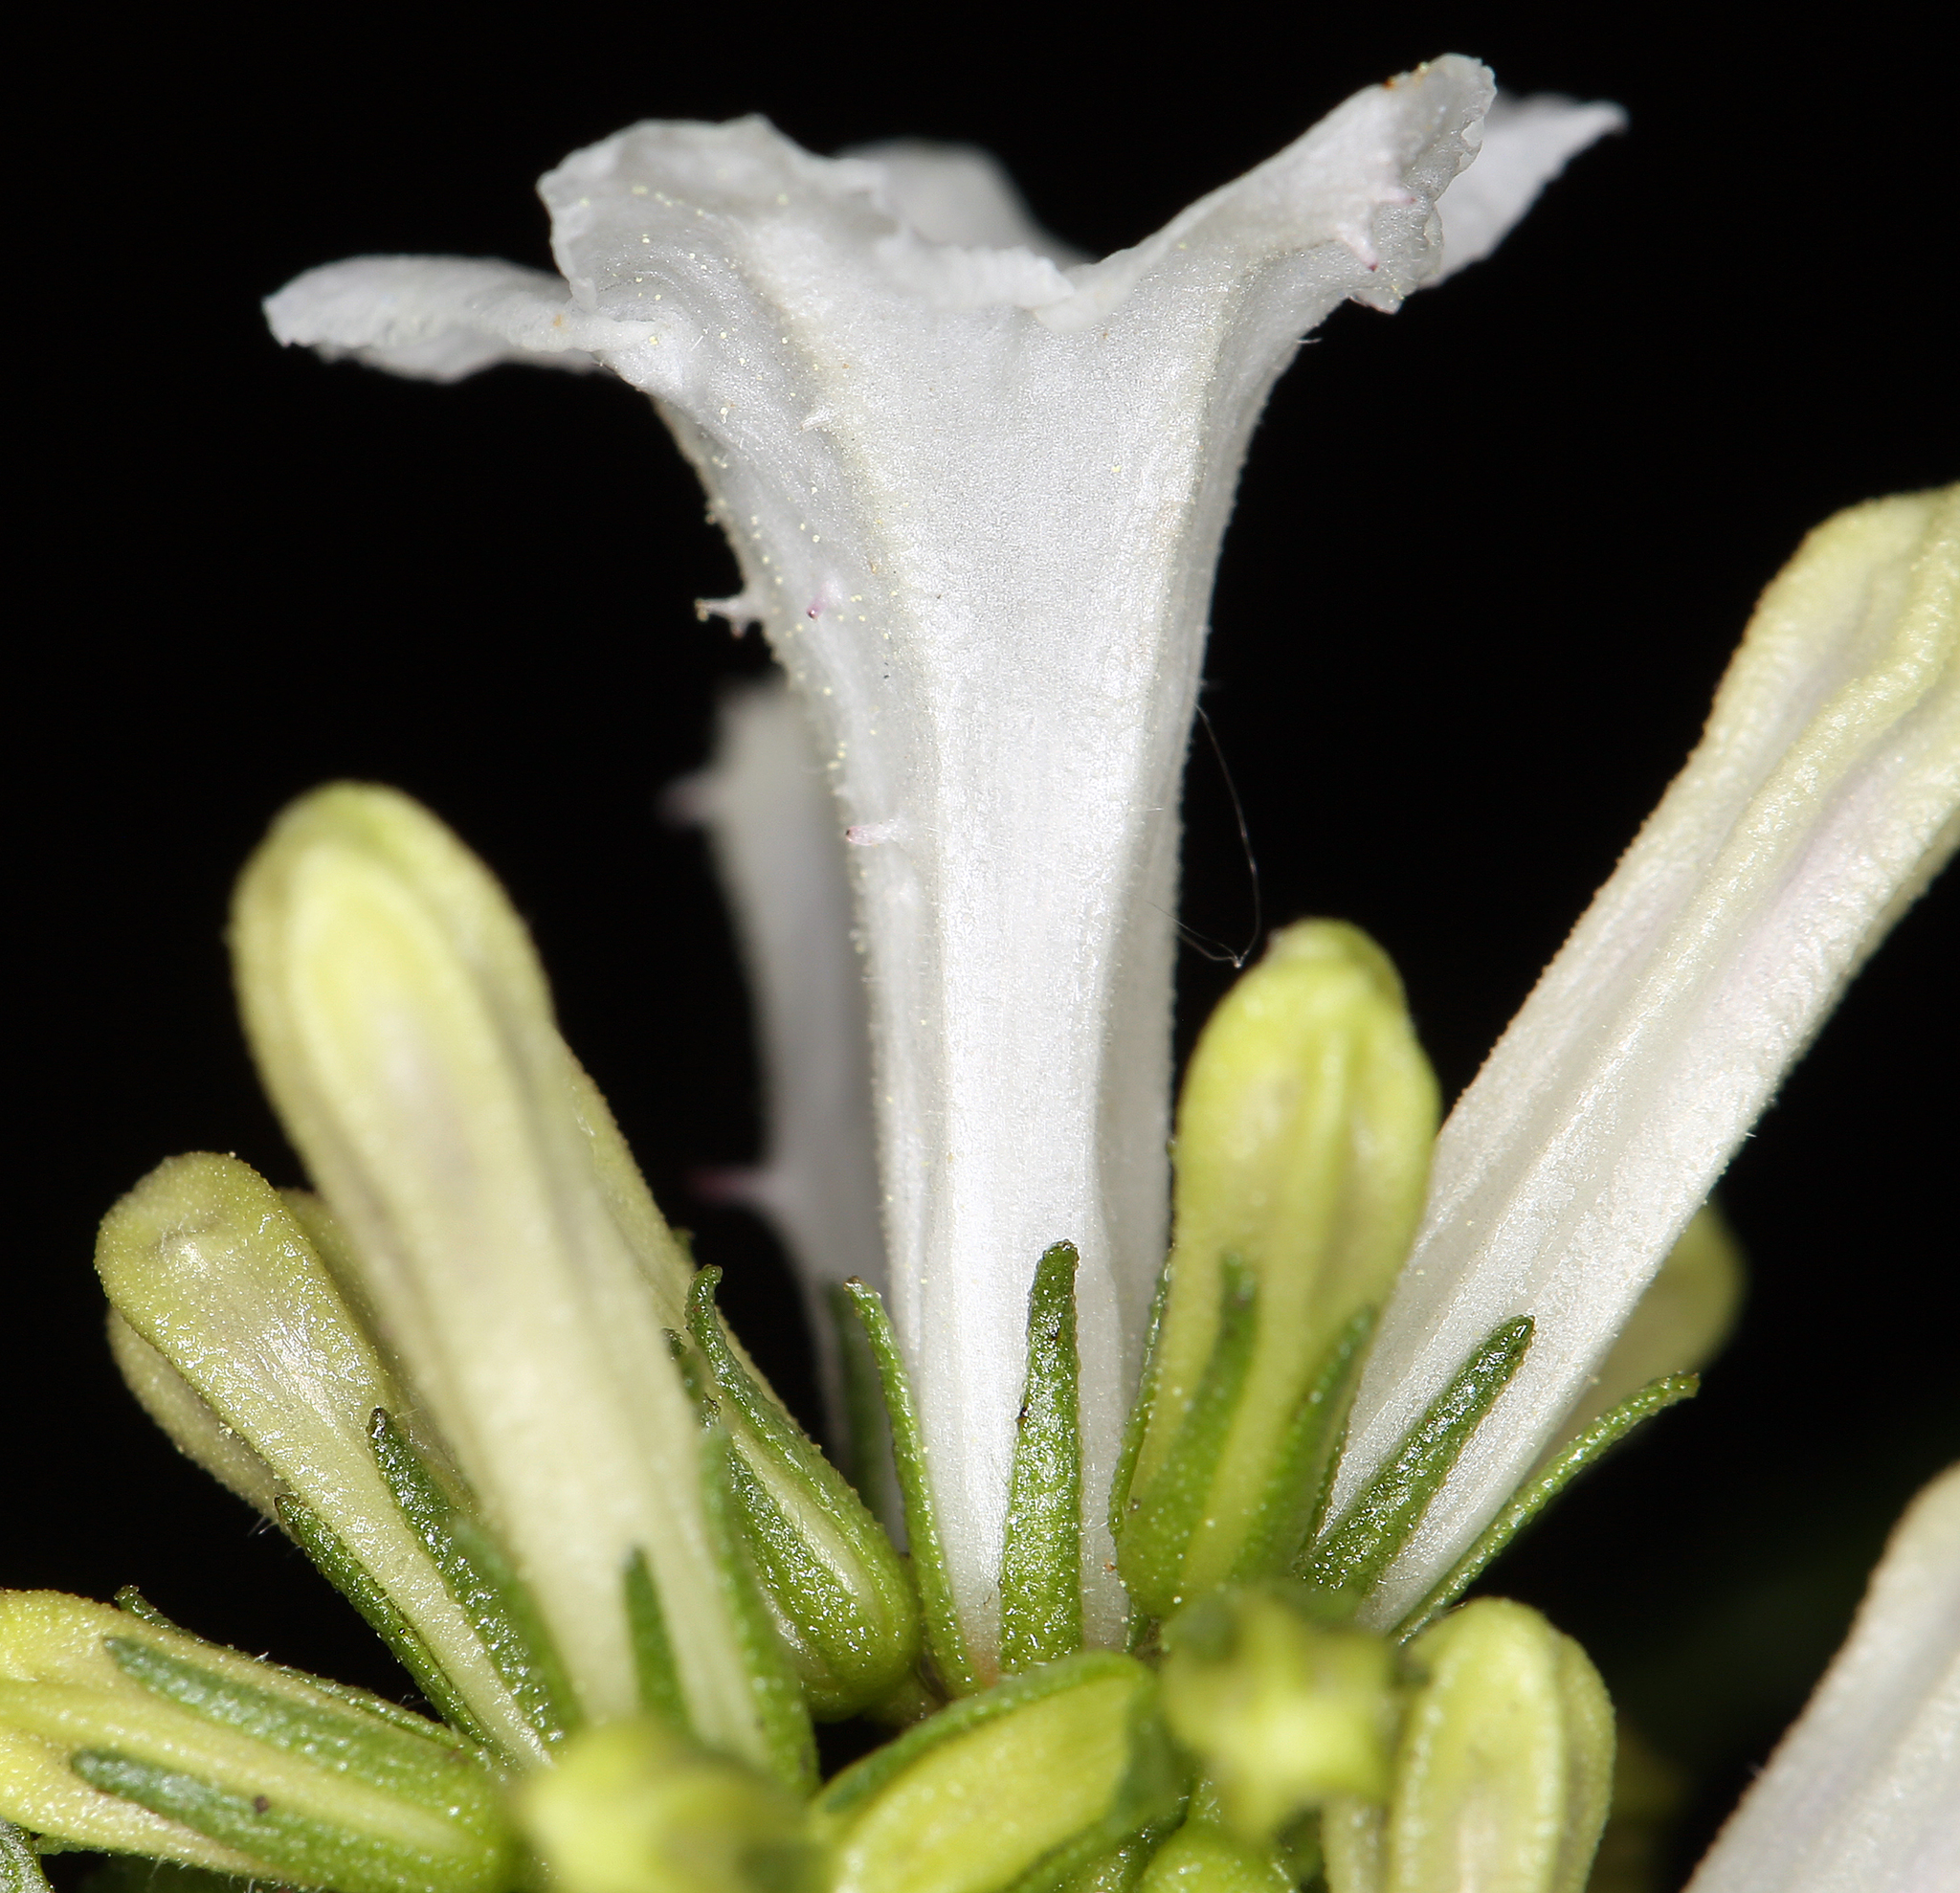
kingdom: Plantae
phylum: Tracheophyta
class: Magnoliopsida
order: Boraginales
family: Namaceae
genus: Eriodictyon
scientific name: Eriodictyon californicum
